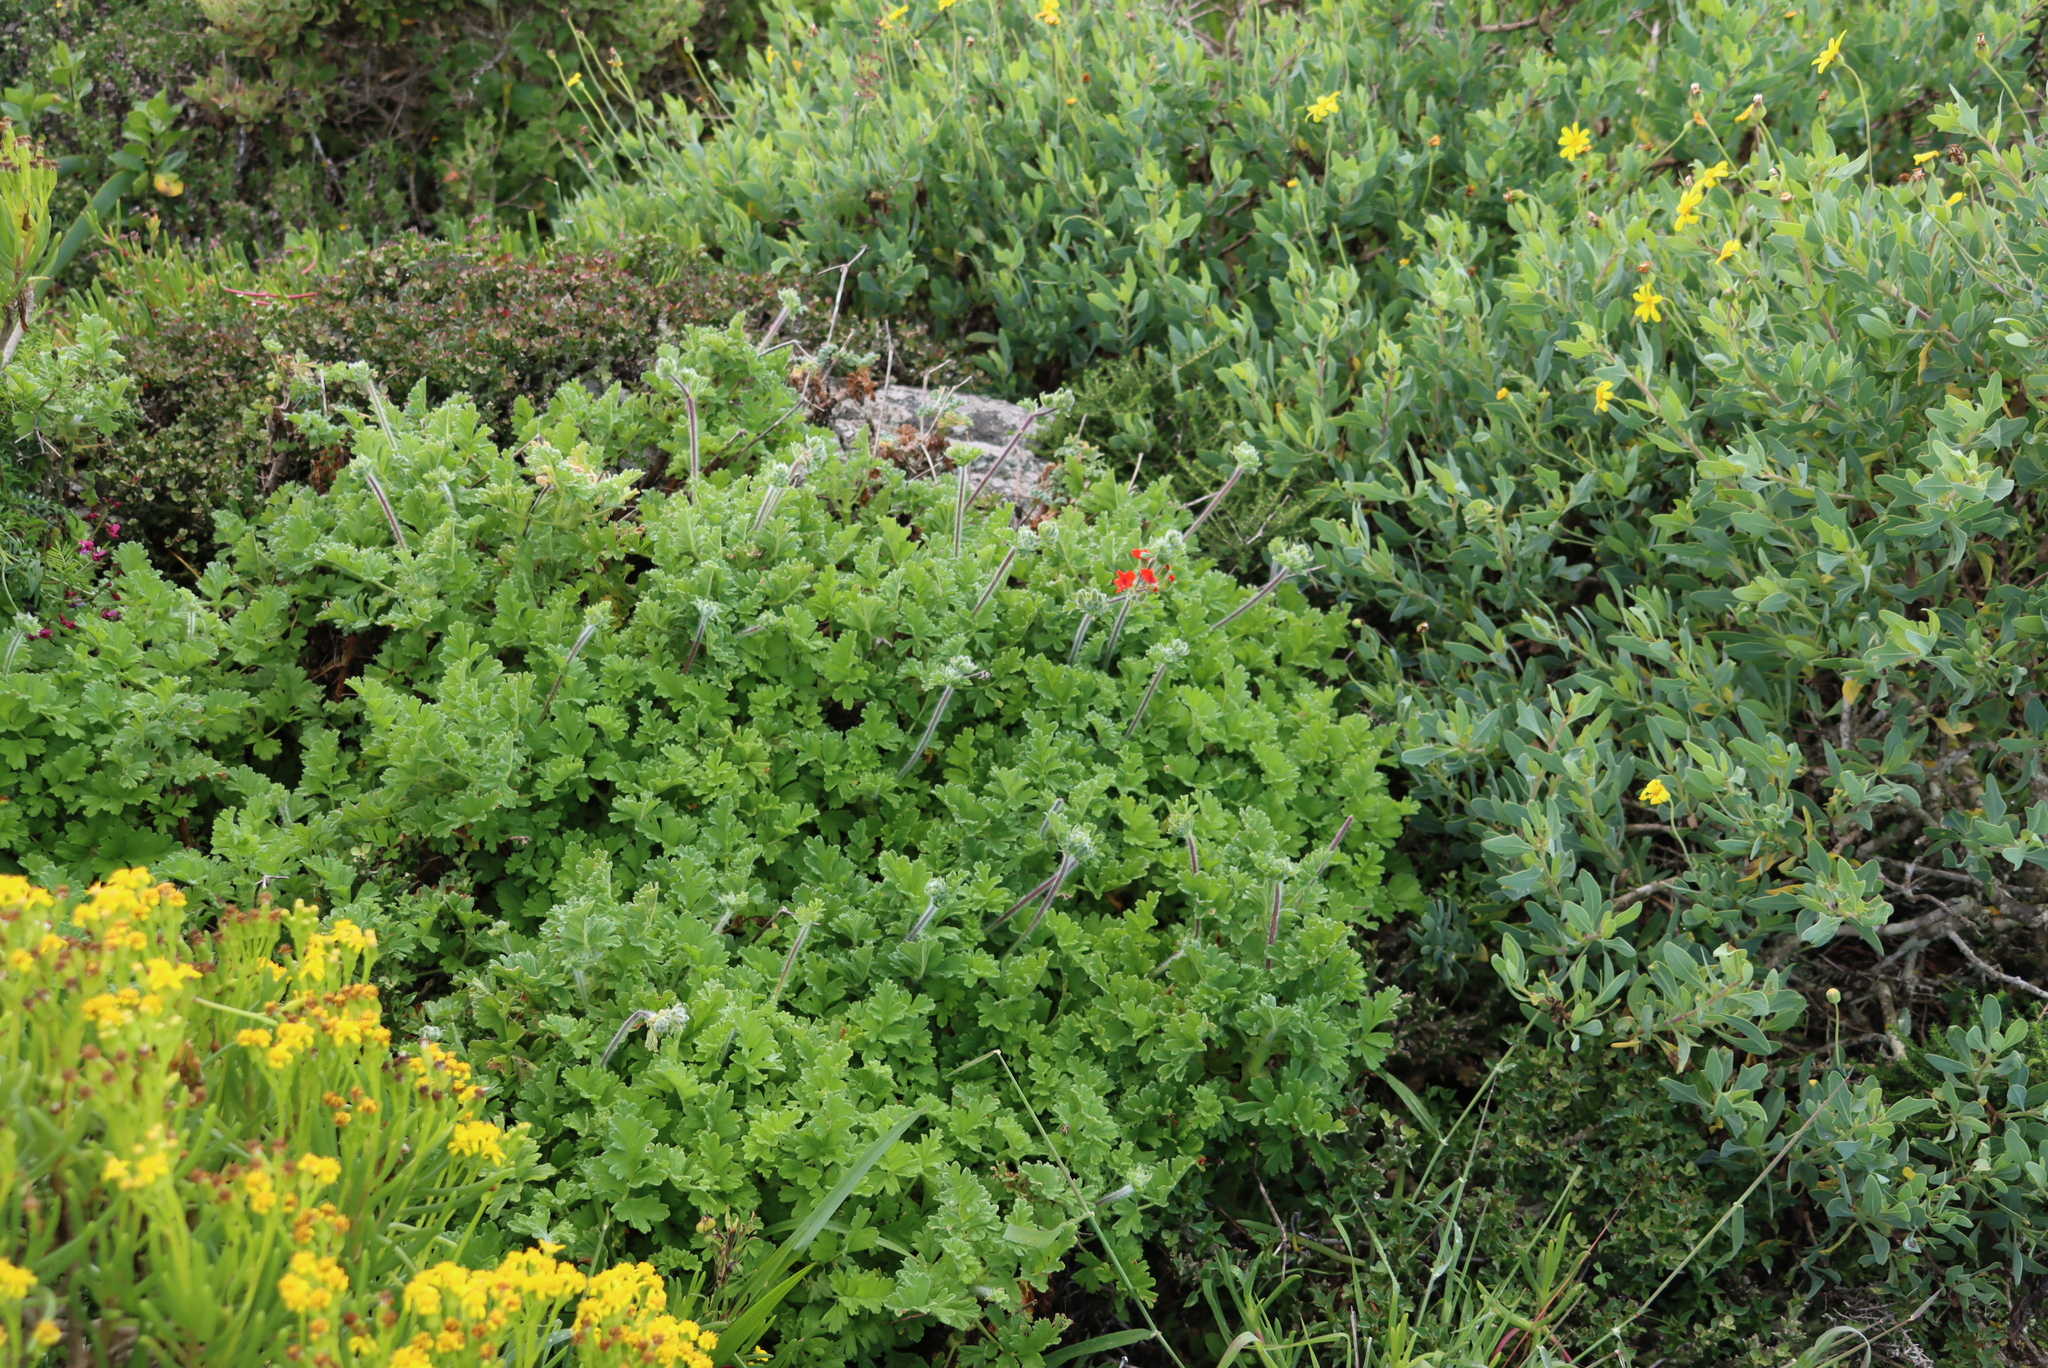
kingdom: Plantae
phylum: Tracheophyta
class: Magnoliopsida
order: Geraniales
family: Geraniaceae
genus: Pelargonium
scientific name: Pelargonium fulgidum
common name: Celandine-leaf pelargonium
